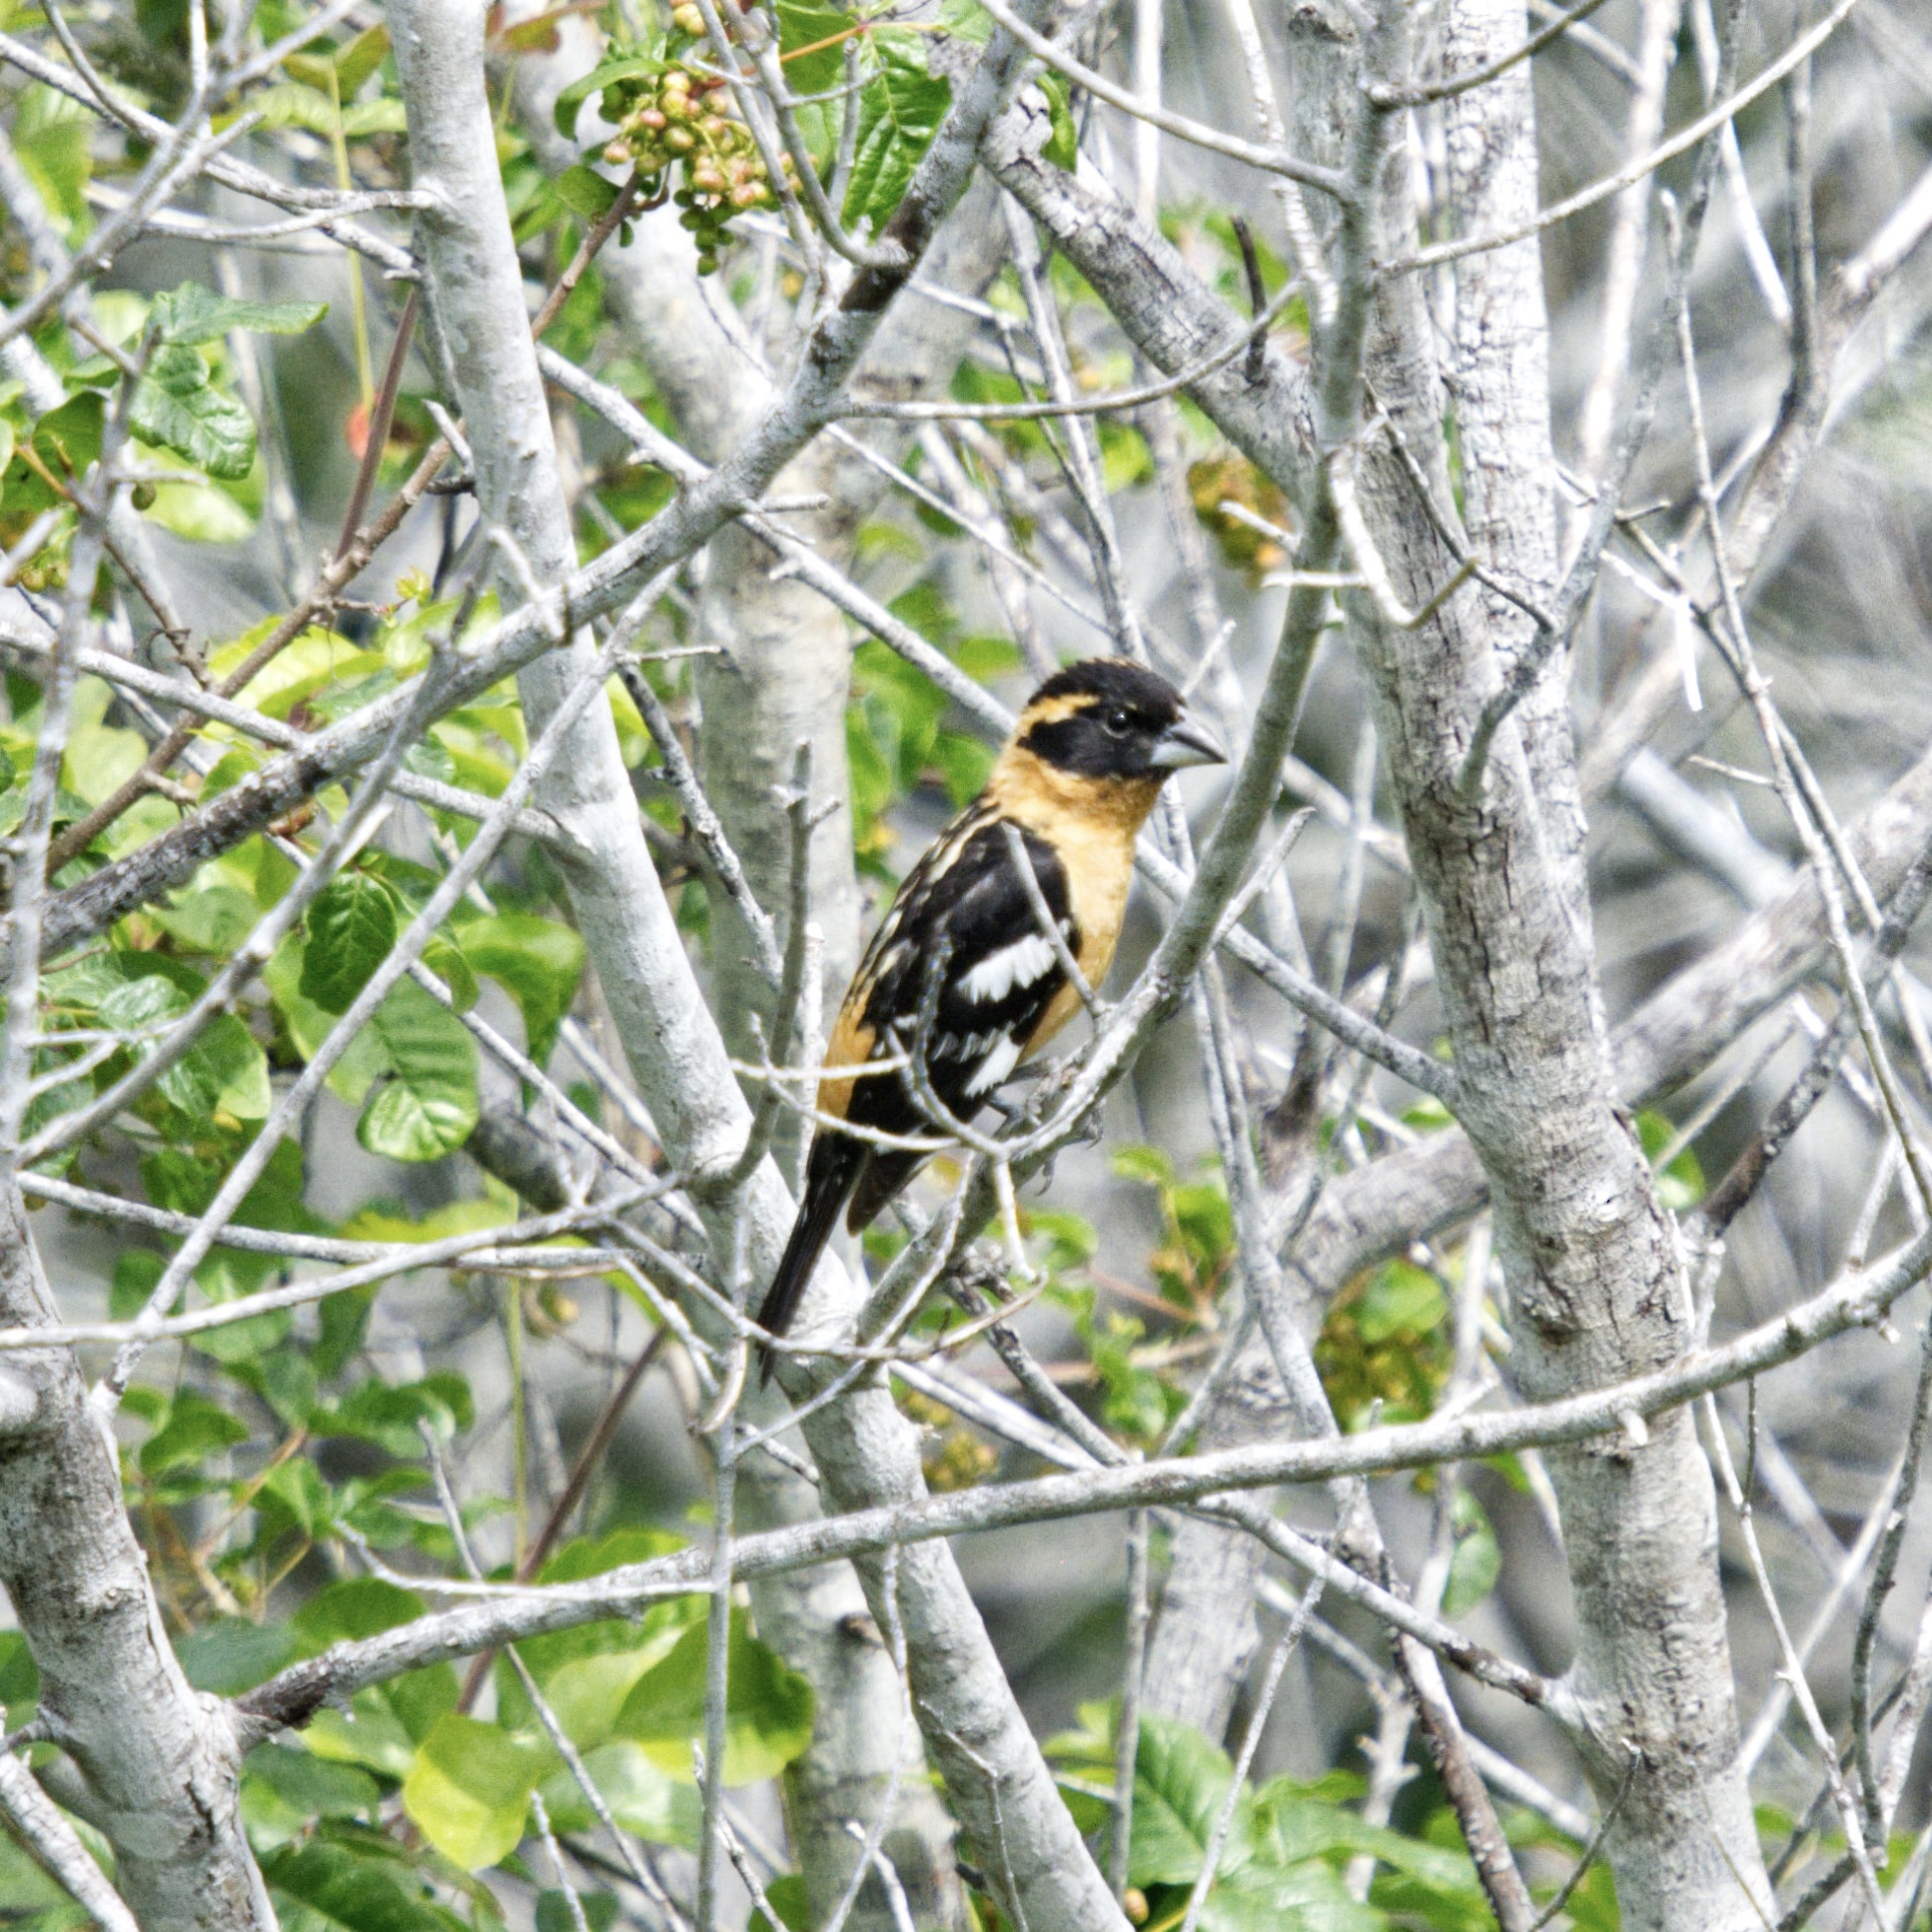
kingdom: Animalia
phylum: Chordata
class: Aves
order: Passeriformes
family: Cardinalidae
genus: Pheucticus
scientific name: Pheucticus melanocephalus
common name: Black-headed grosbeak
